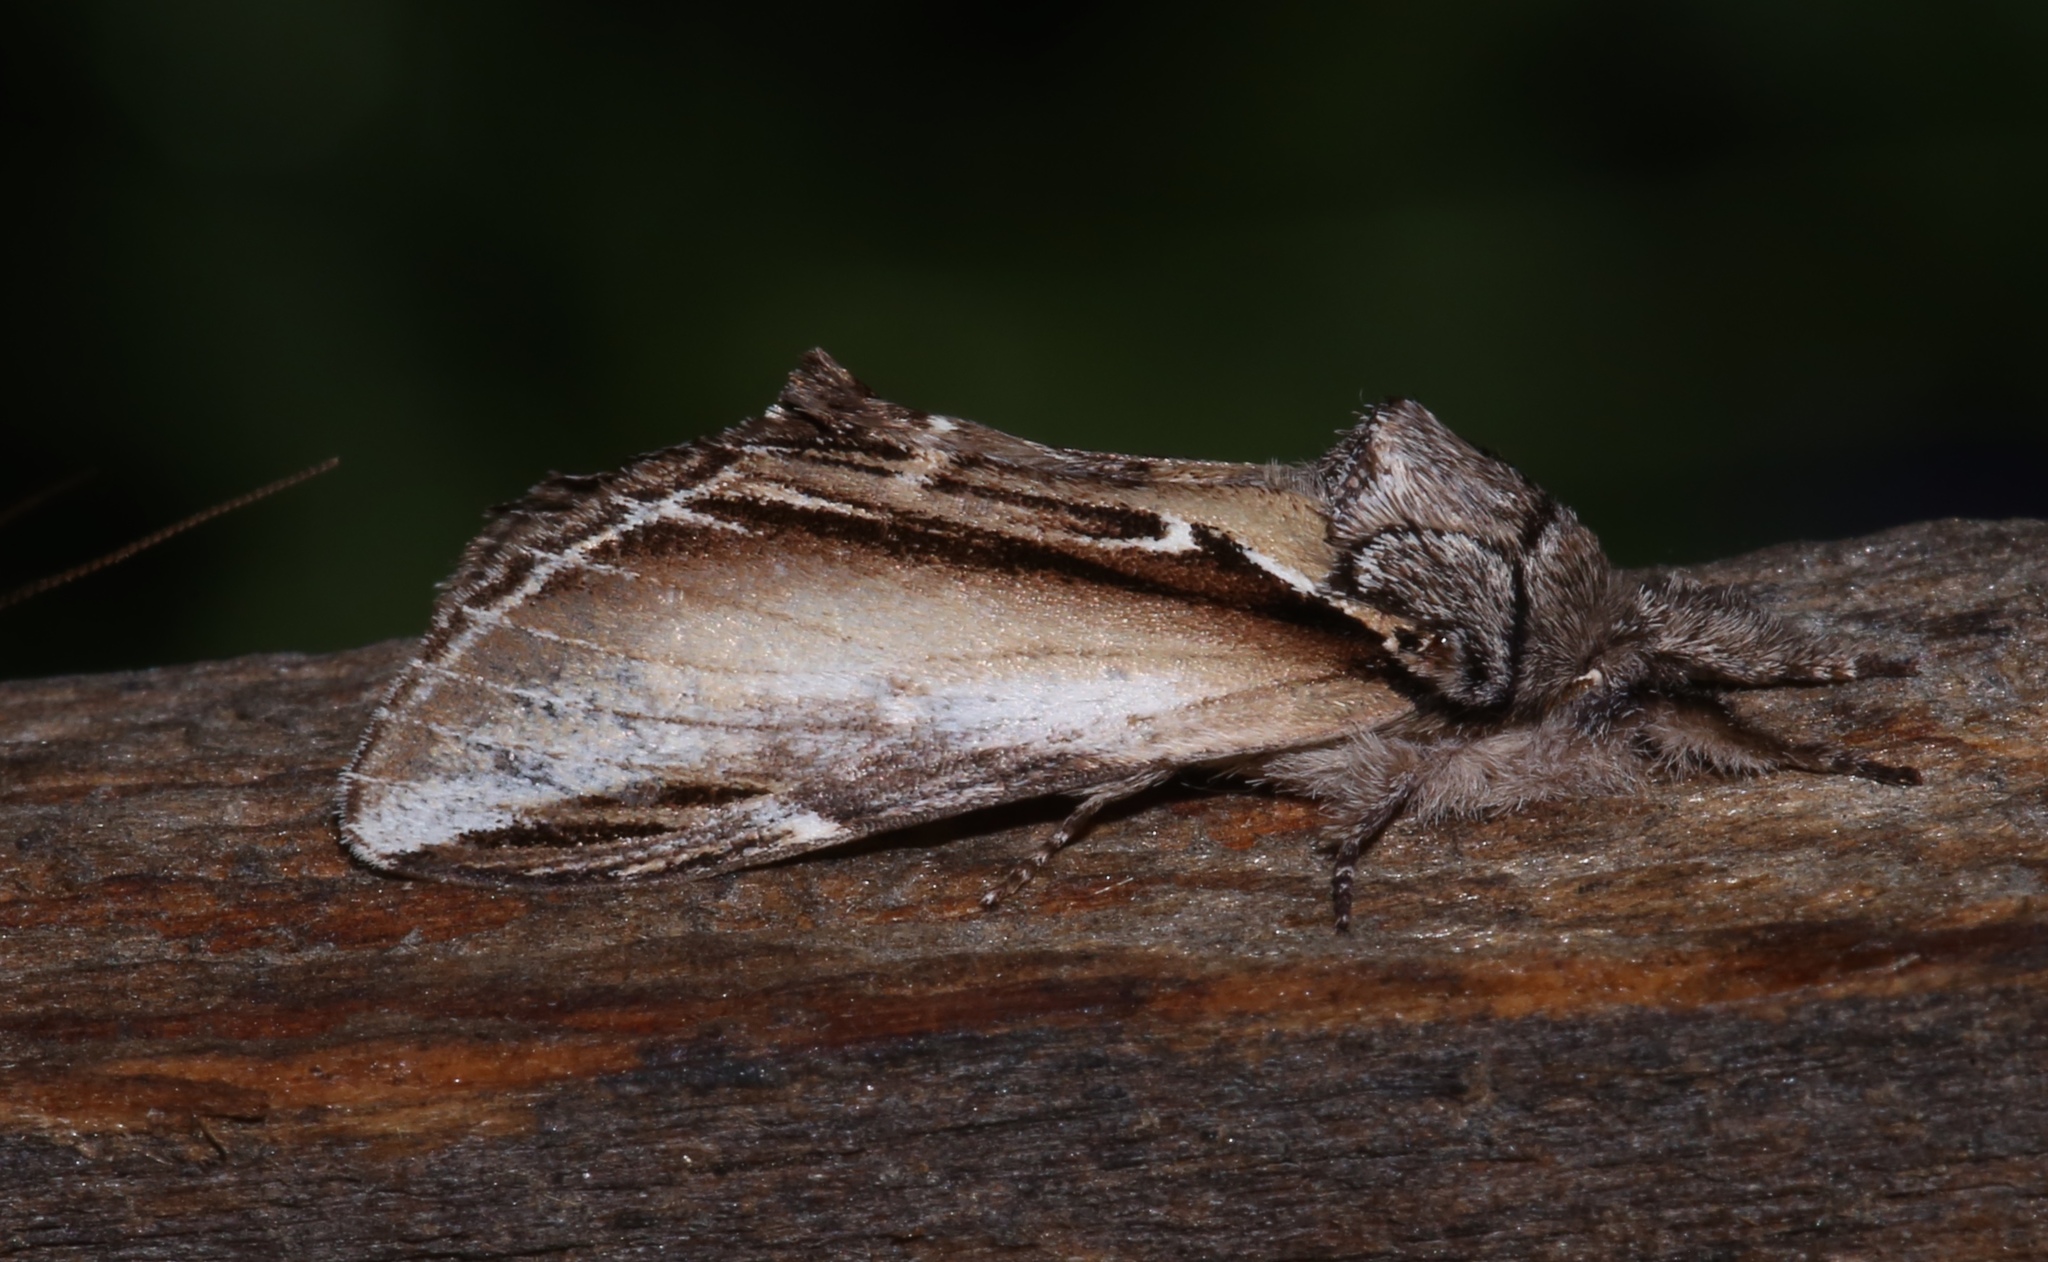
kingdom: Animalia
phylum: Arthropoda
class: Insecta
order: Lepidoptera
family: Notodontidae
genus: Pheosia
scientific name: Pheosia rimosa
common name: Black-rimmed prominent
